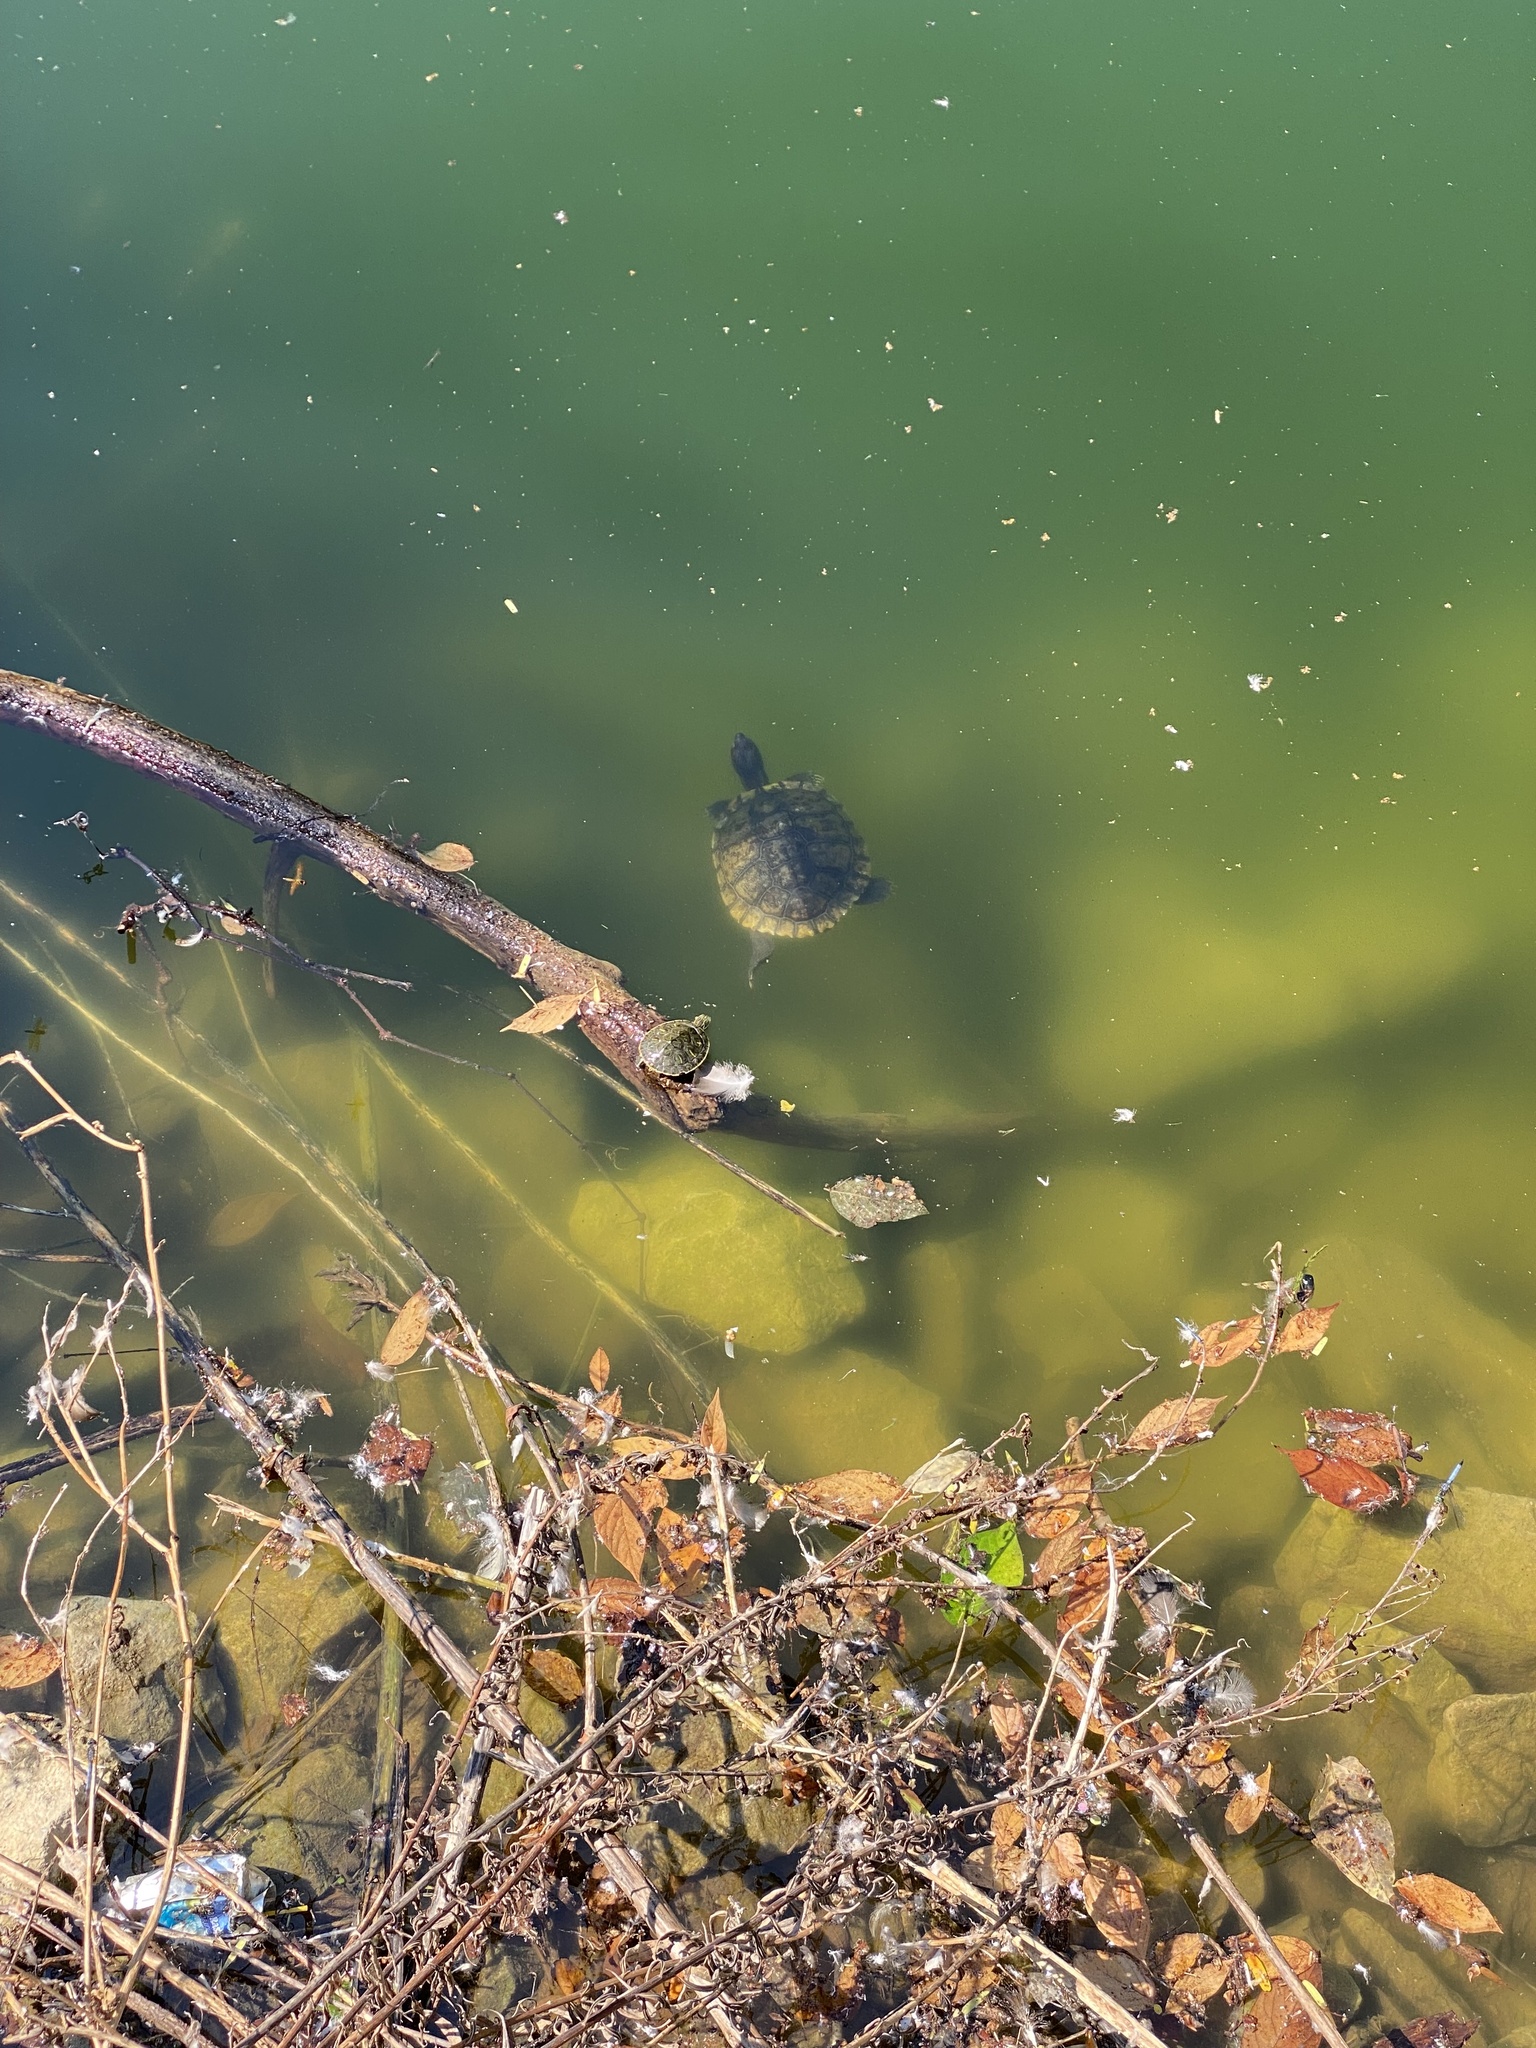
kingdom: Animalia
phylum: Chordata
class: Testudines
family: Emydidae
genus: Trachemys
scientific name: Trachemys scripta
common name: Slider
